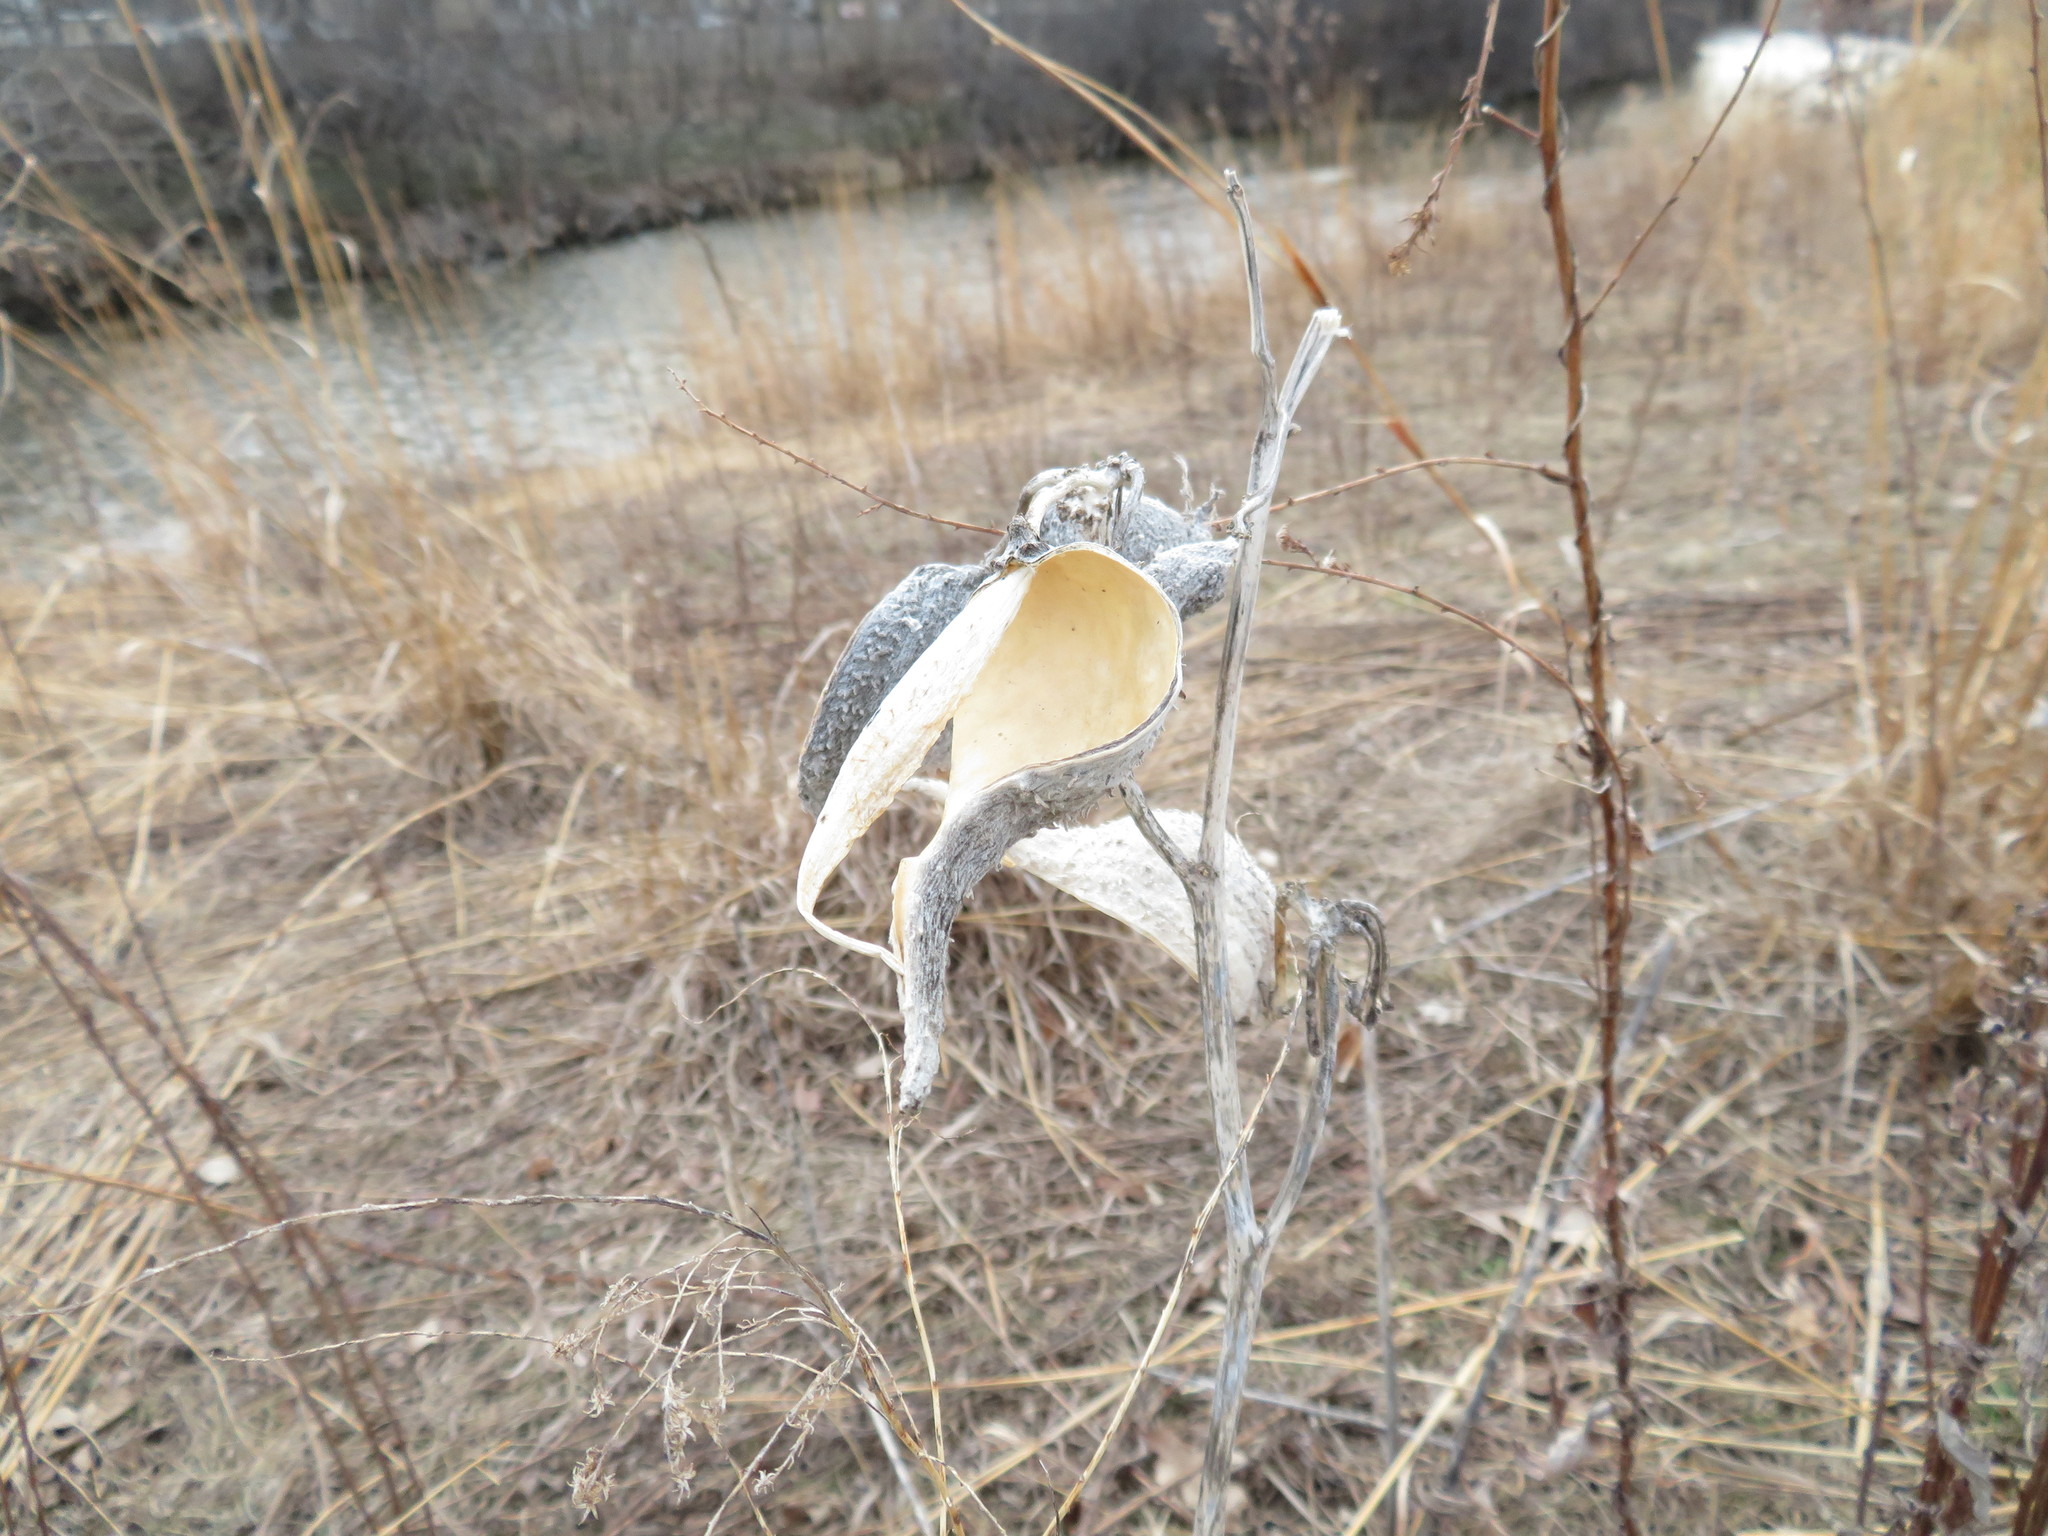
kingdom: Plantae
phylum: Tracheophyta
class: Magnoliopsida
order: Gentianales
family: Apocynaceae
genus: Asclepias
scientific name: Asclepias syriaca
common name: Common milkweed
